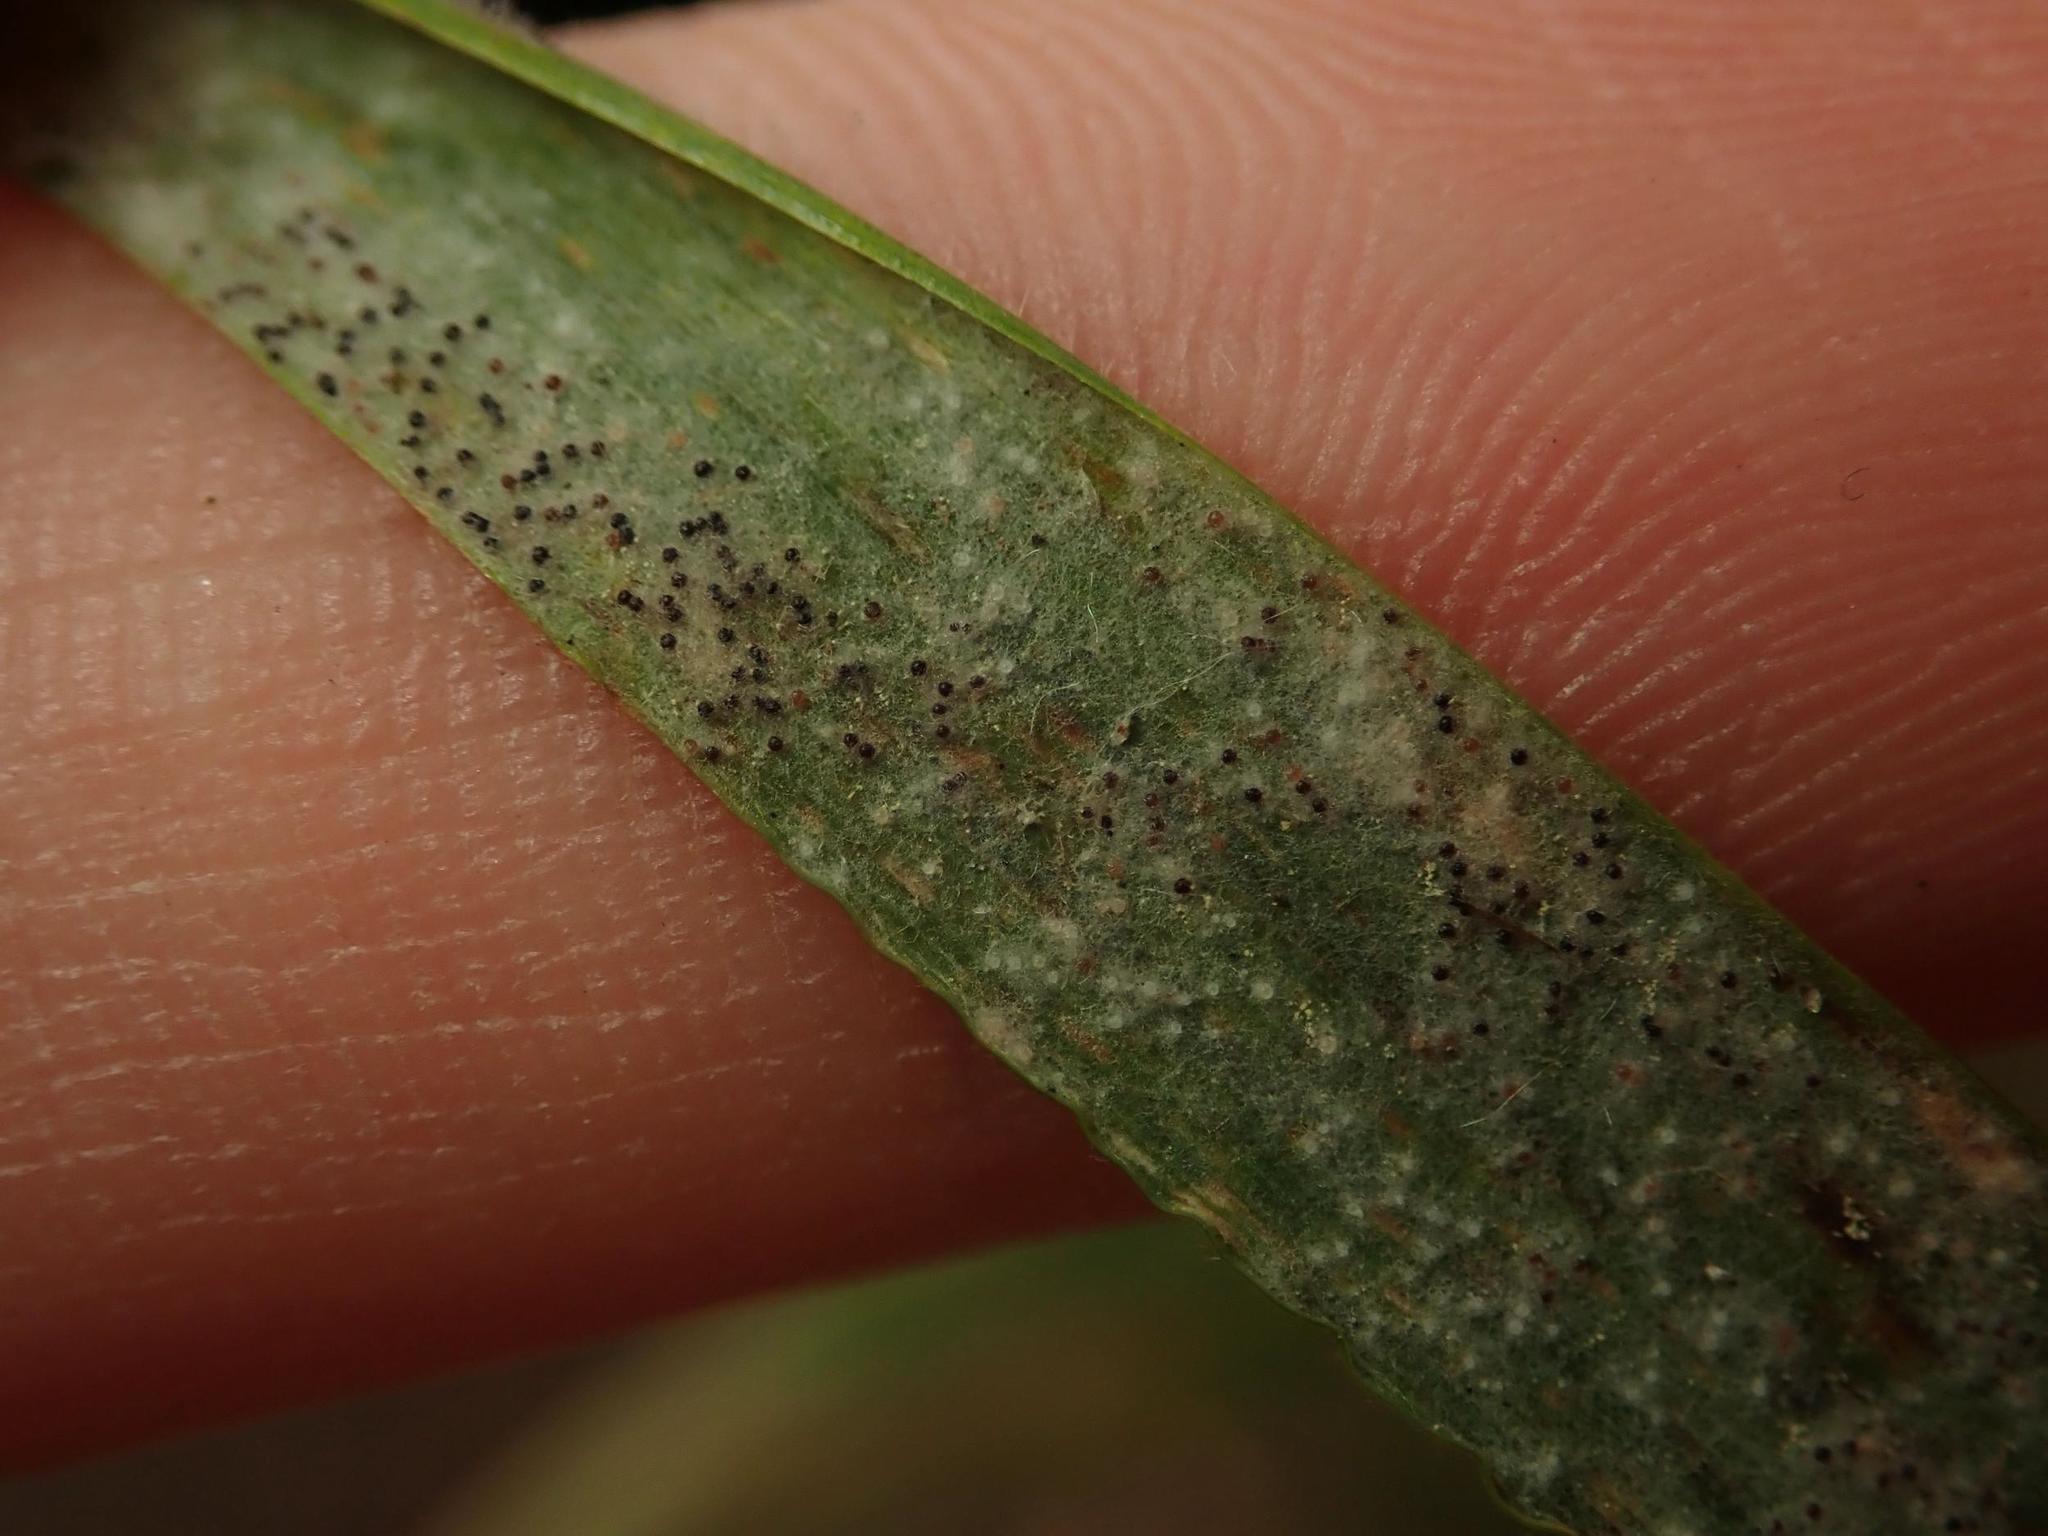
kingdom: Fungi
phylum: Ascomycota
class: Leotiomycetes
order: Helotiales
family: Erysiphaceae
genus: Blumeria
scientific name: Blumeria hordei
